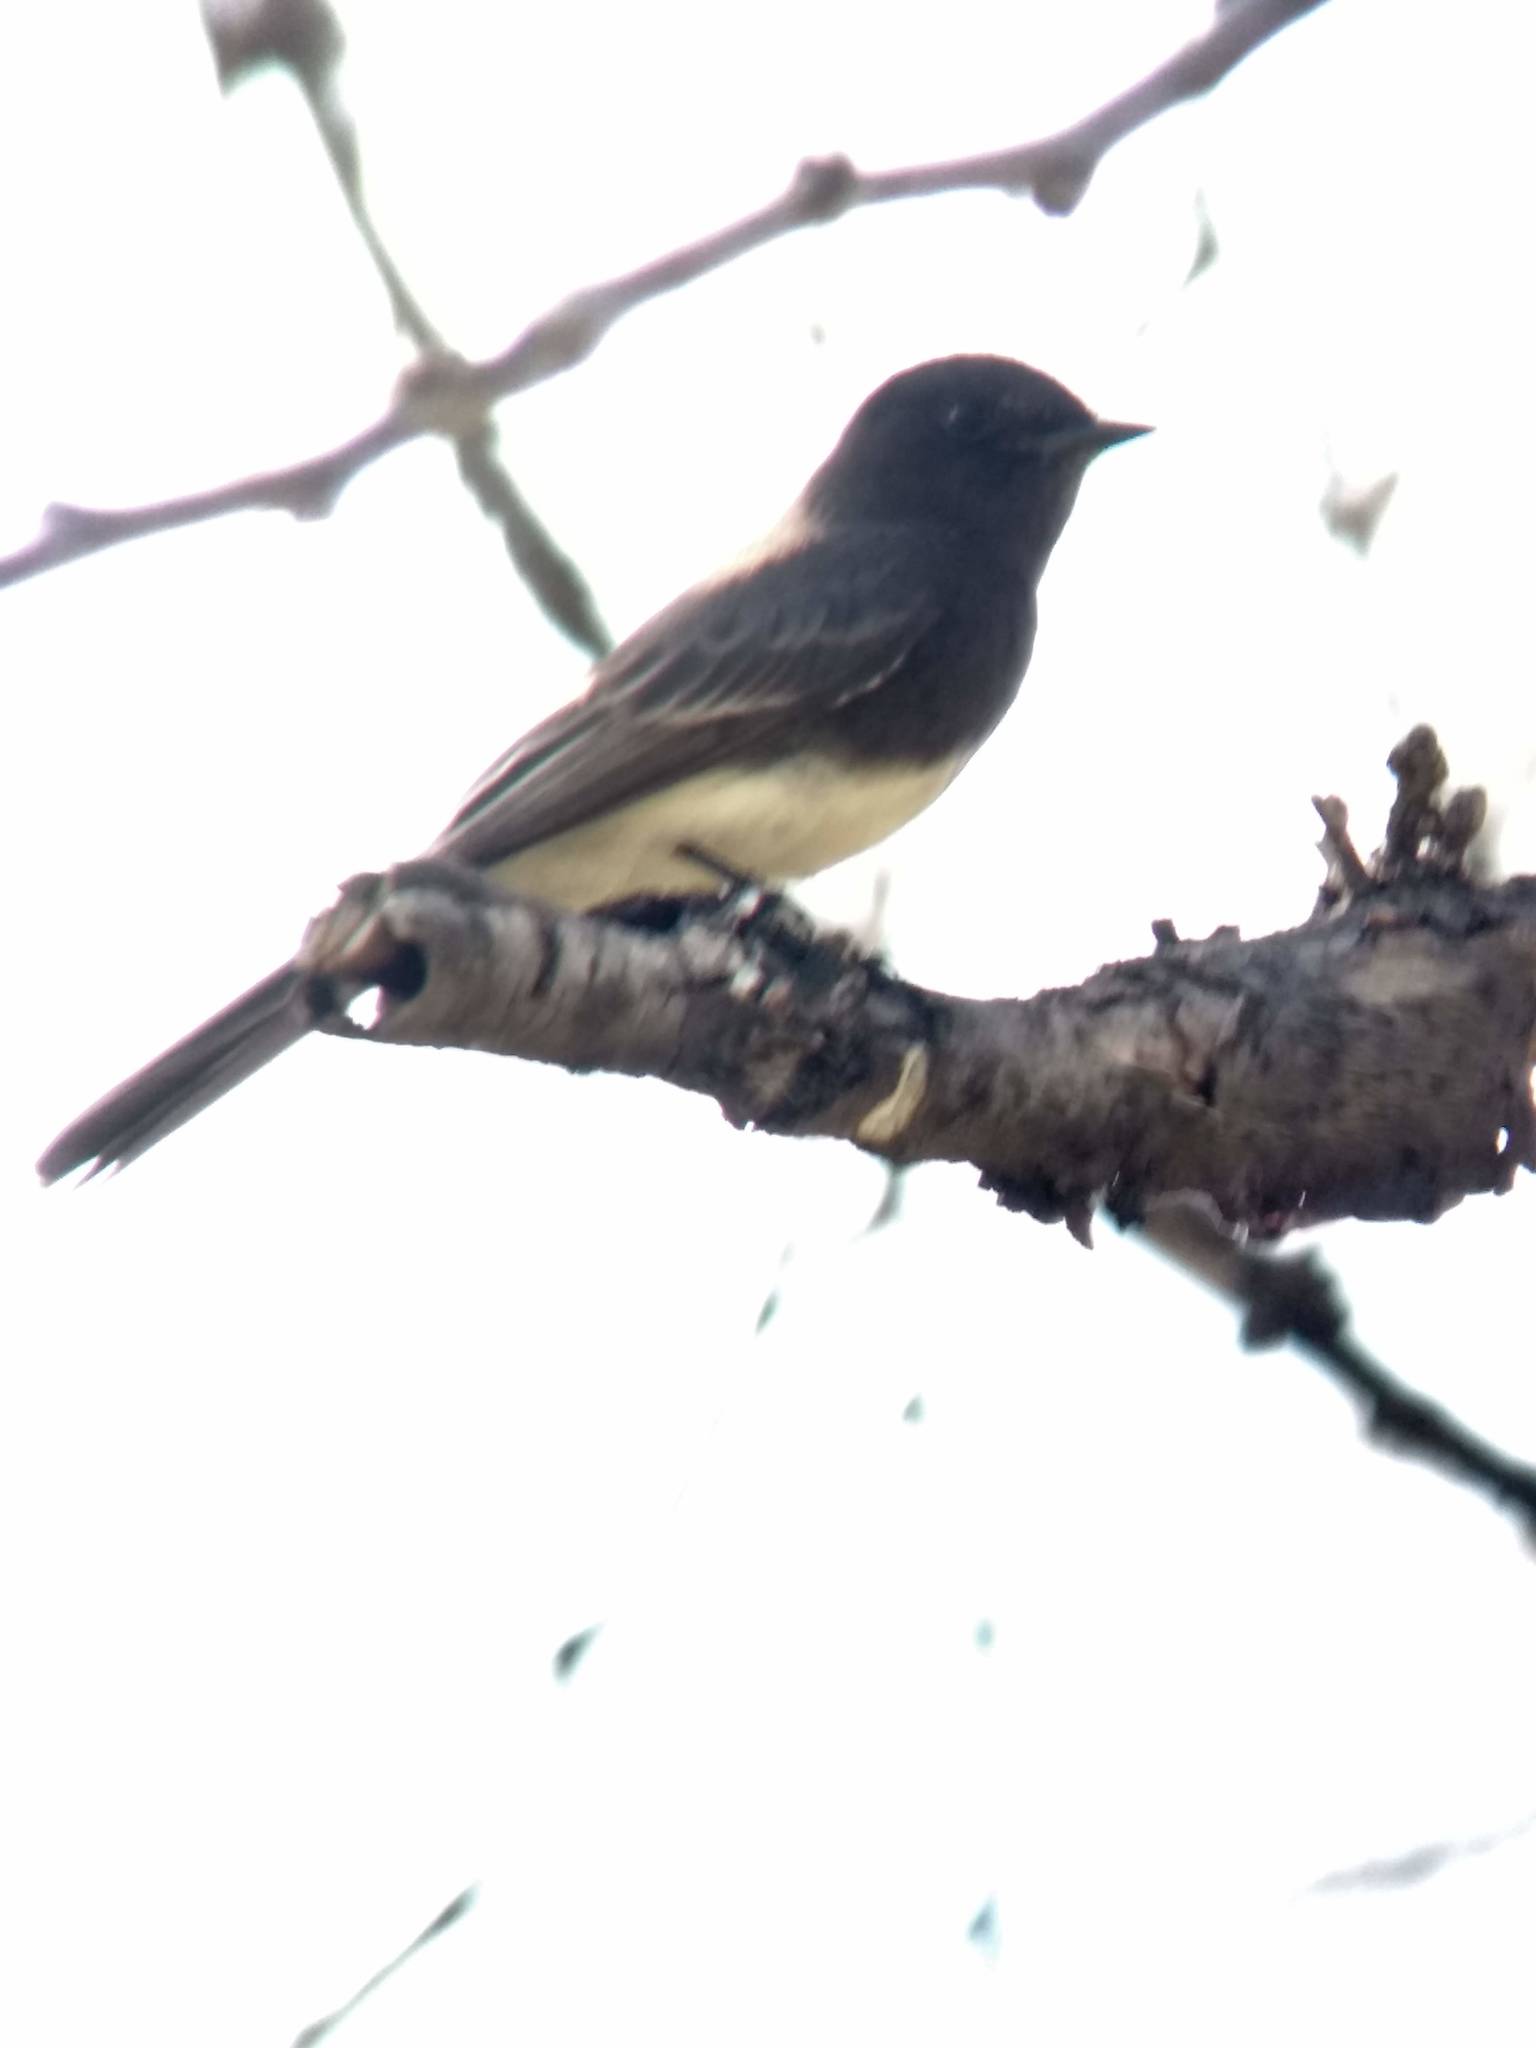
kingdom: Animalia
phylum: Chordata
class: Aves
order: Passeriformes
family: Tyrannidae
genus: Sayornis
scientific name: Sayornis nigricans
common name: Black phoebe
